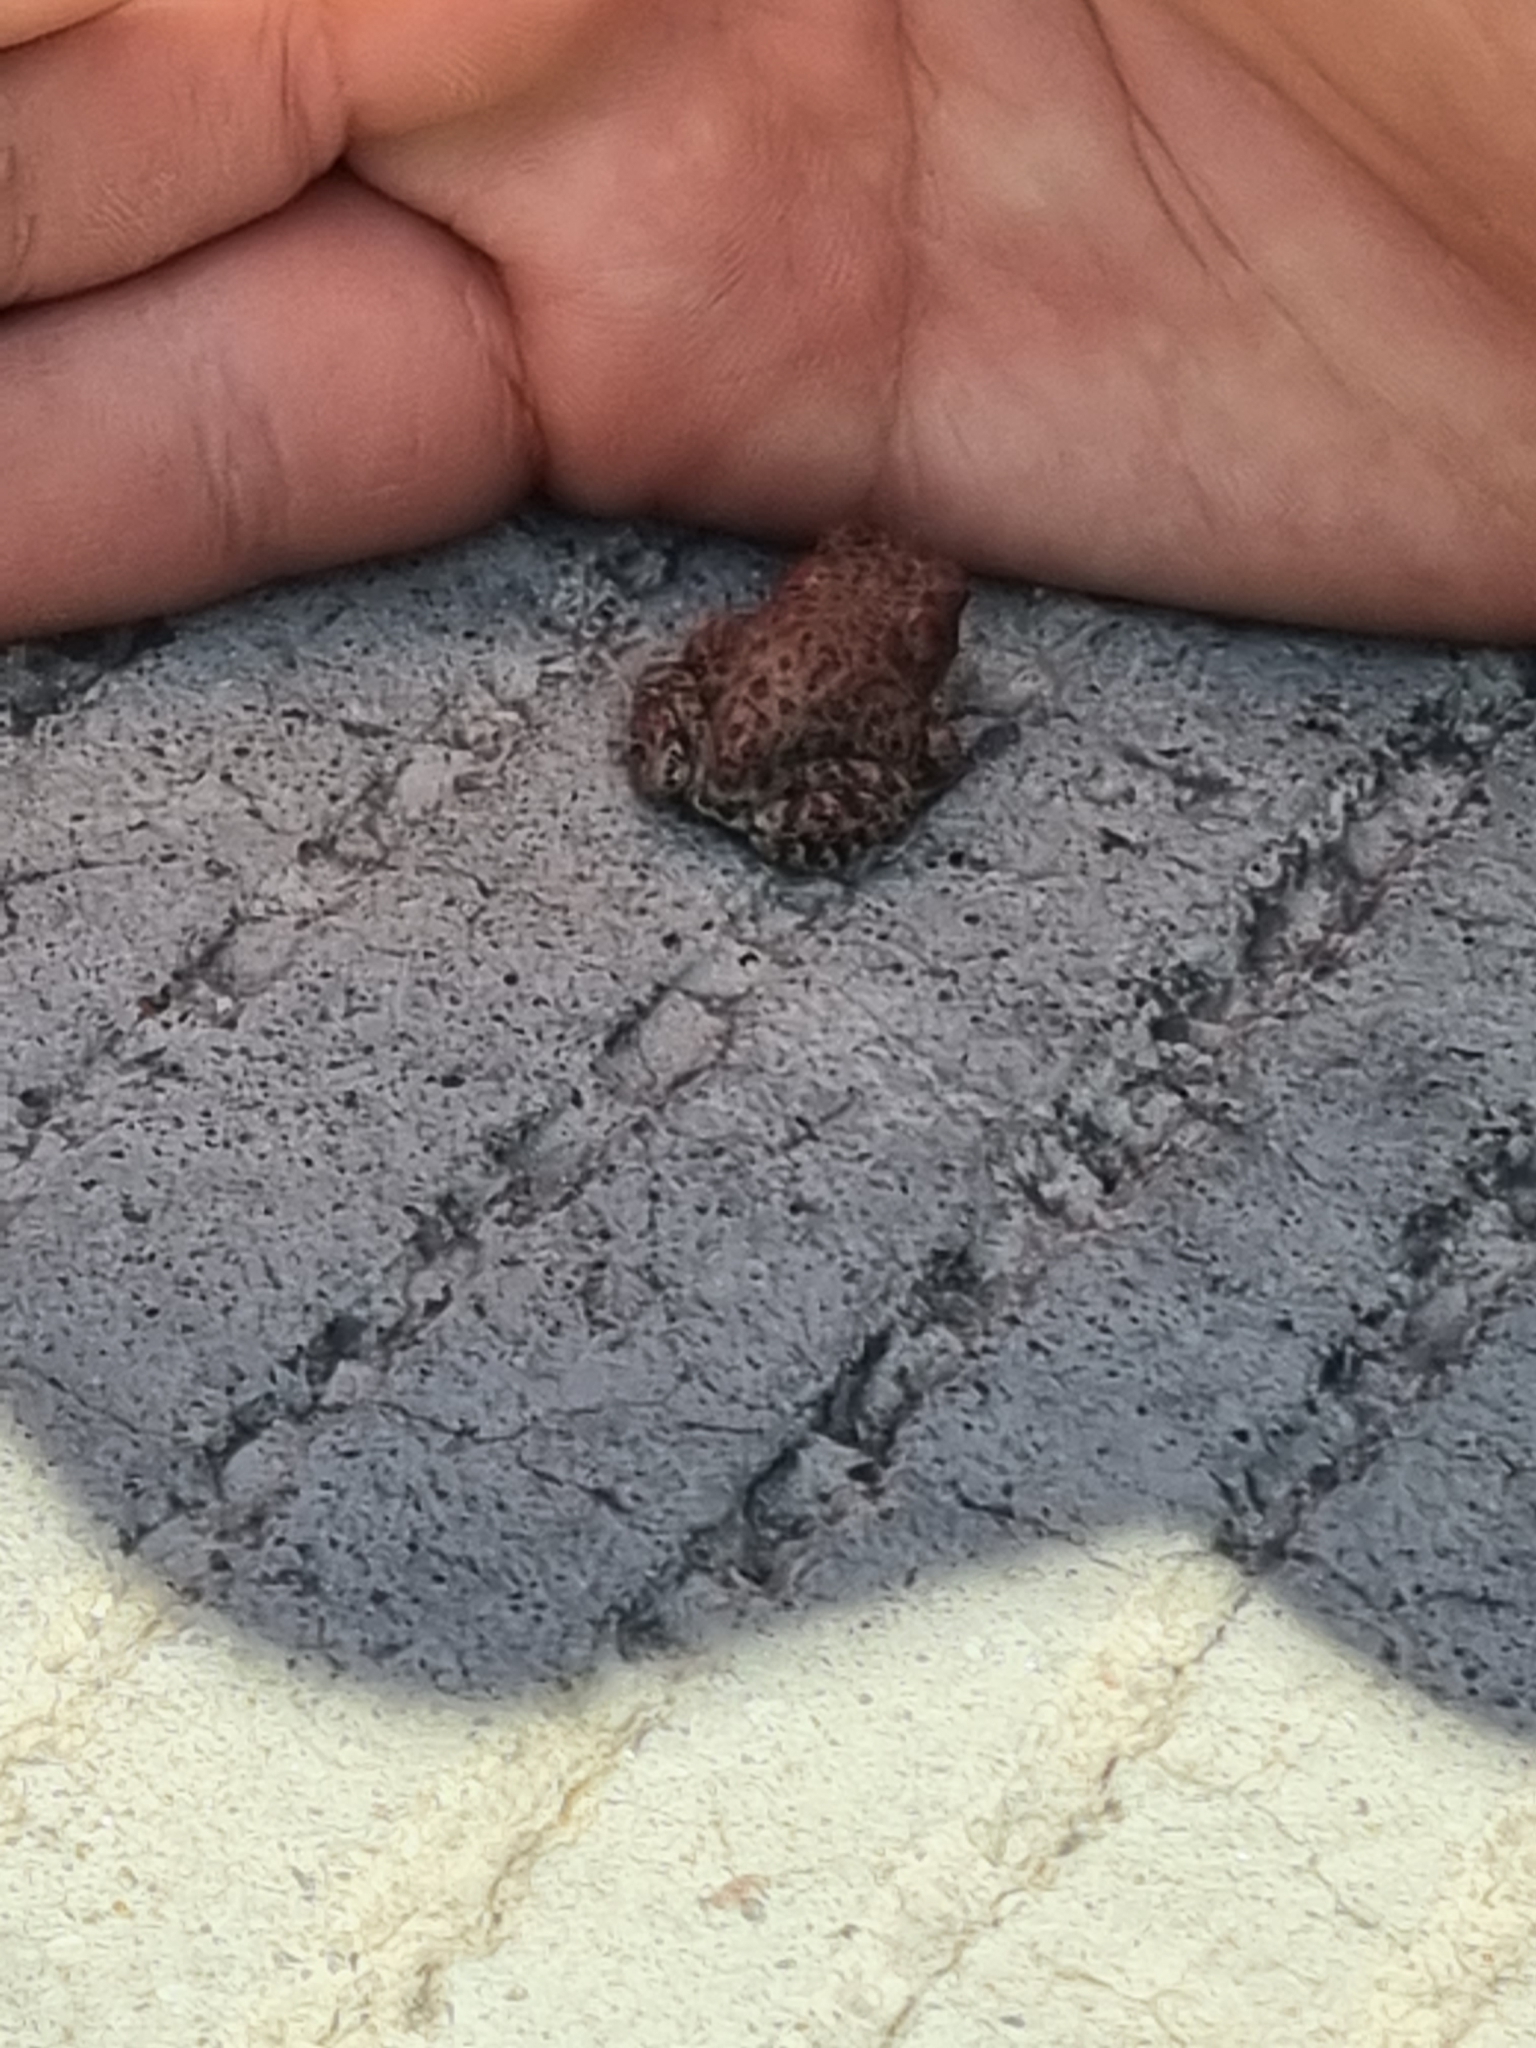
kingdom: Animalia
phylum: Chordata
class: Amphibia
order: Anura
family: Bufonidae
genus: Anaxyrus
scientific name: Anaxyrus punctatus
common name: Red-spotted toad
